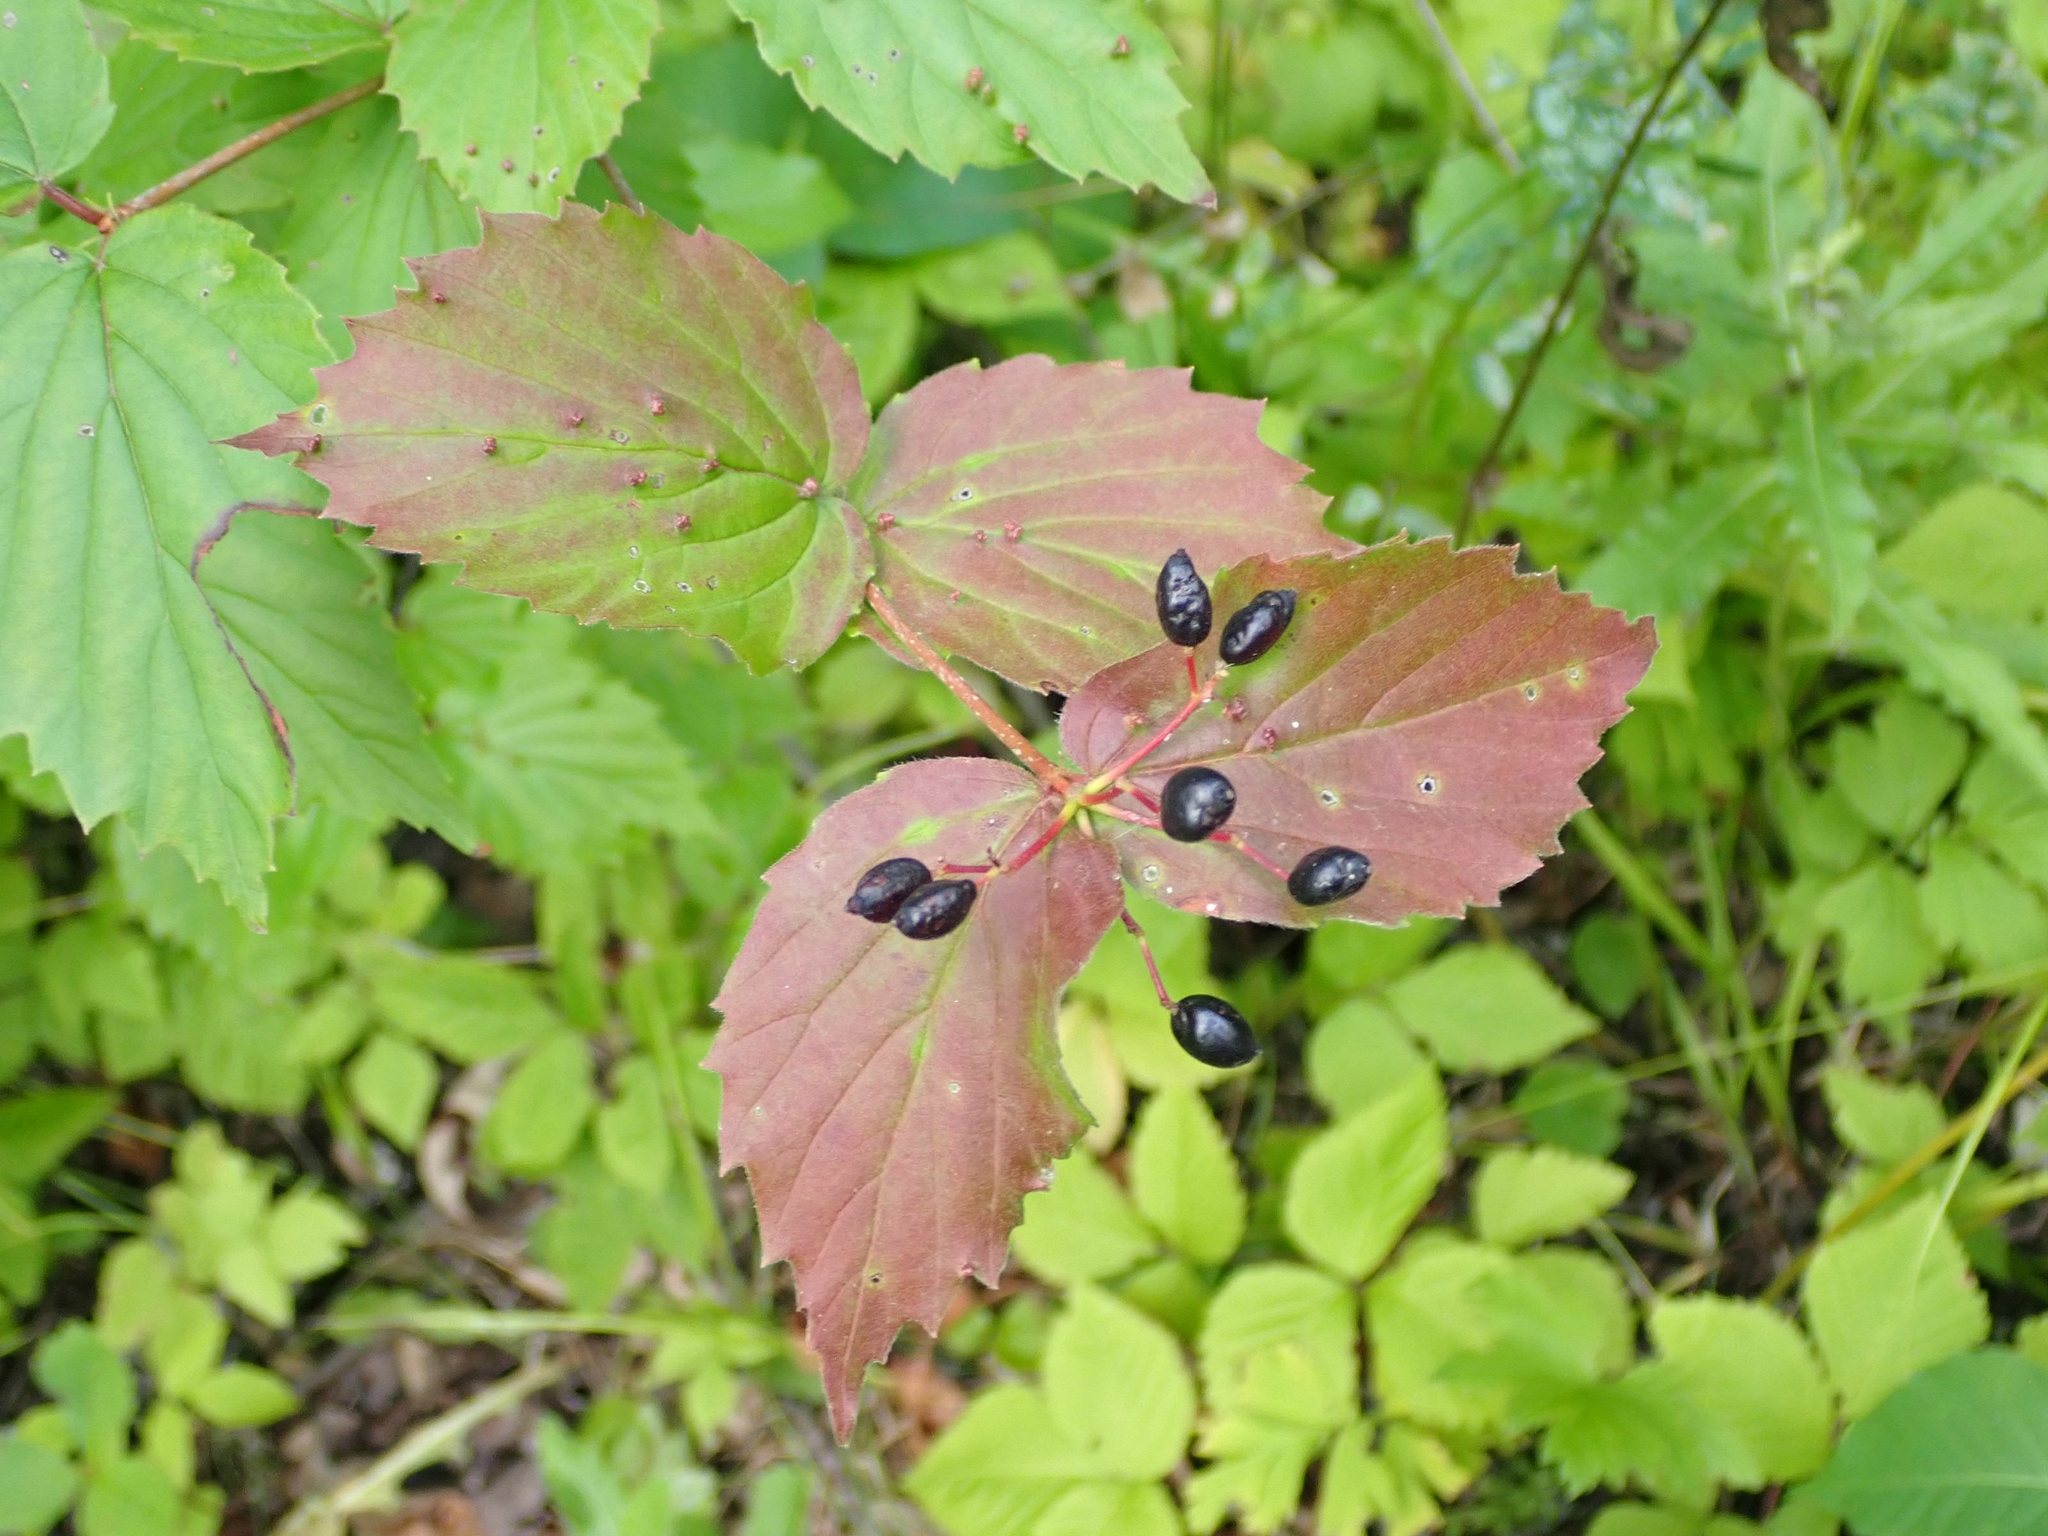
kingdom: Plantae
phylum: Tracheophyta
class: Magnoliopsida
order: Dipsacales
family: Viburnaceae
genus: Viburnum
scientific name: Viburnum rafinesqueanum
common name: Downy arrow-wood
